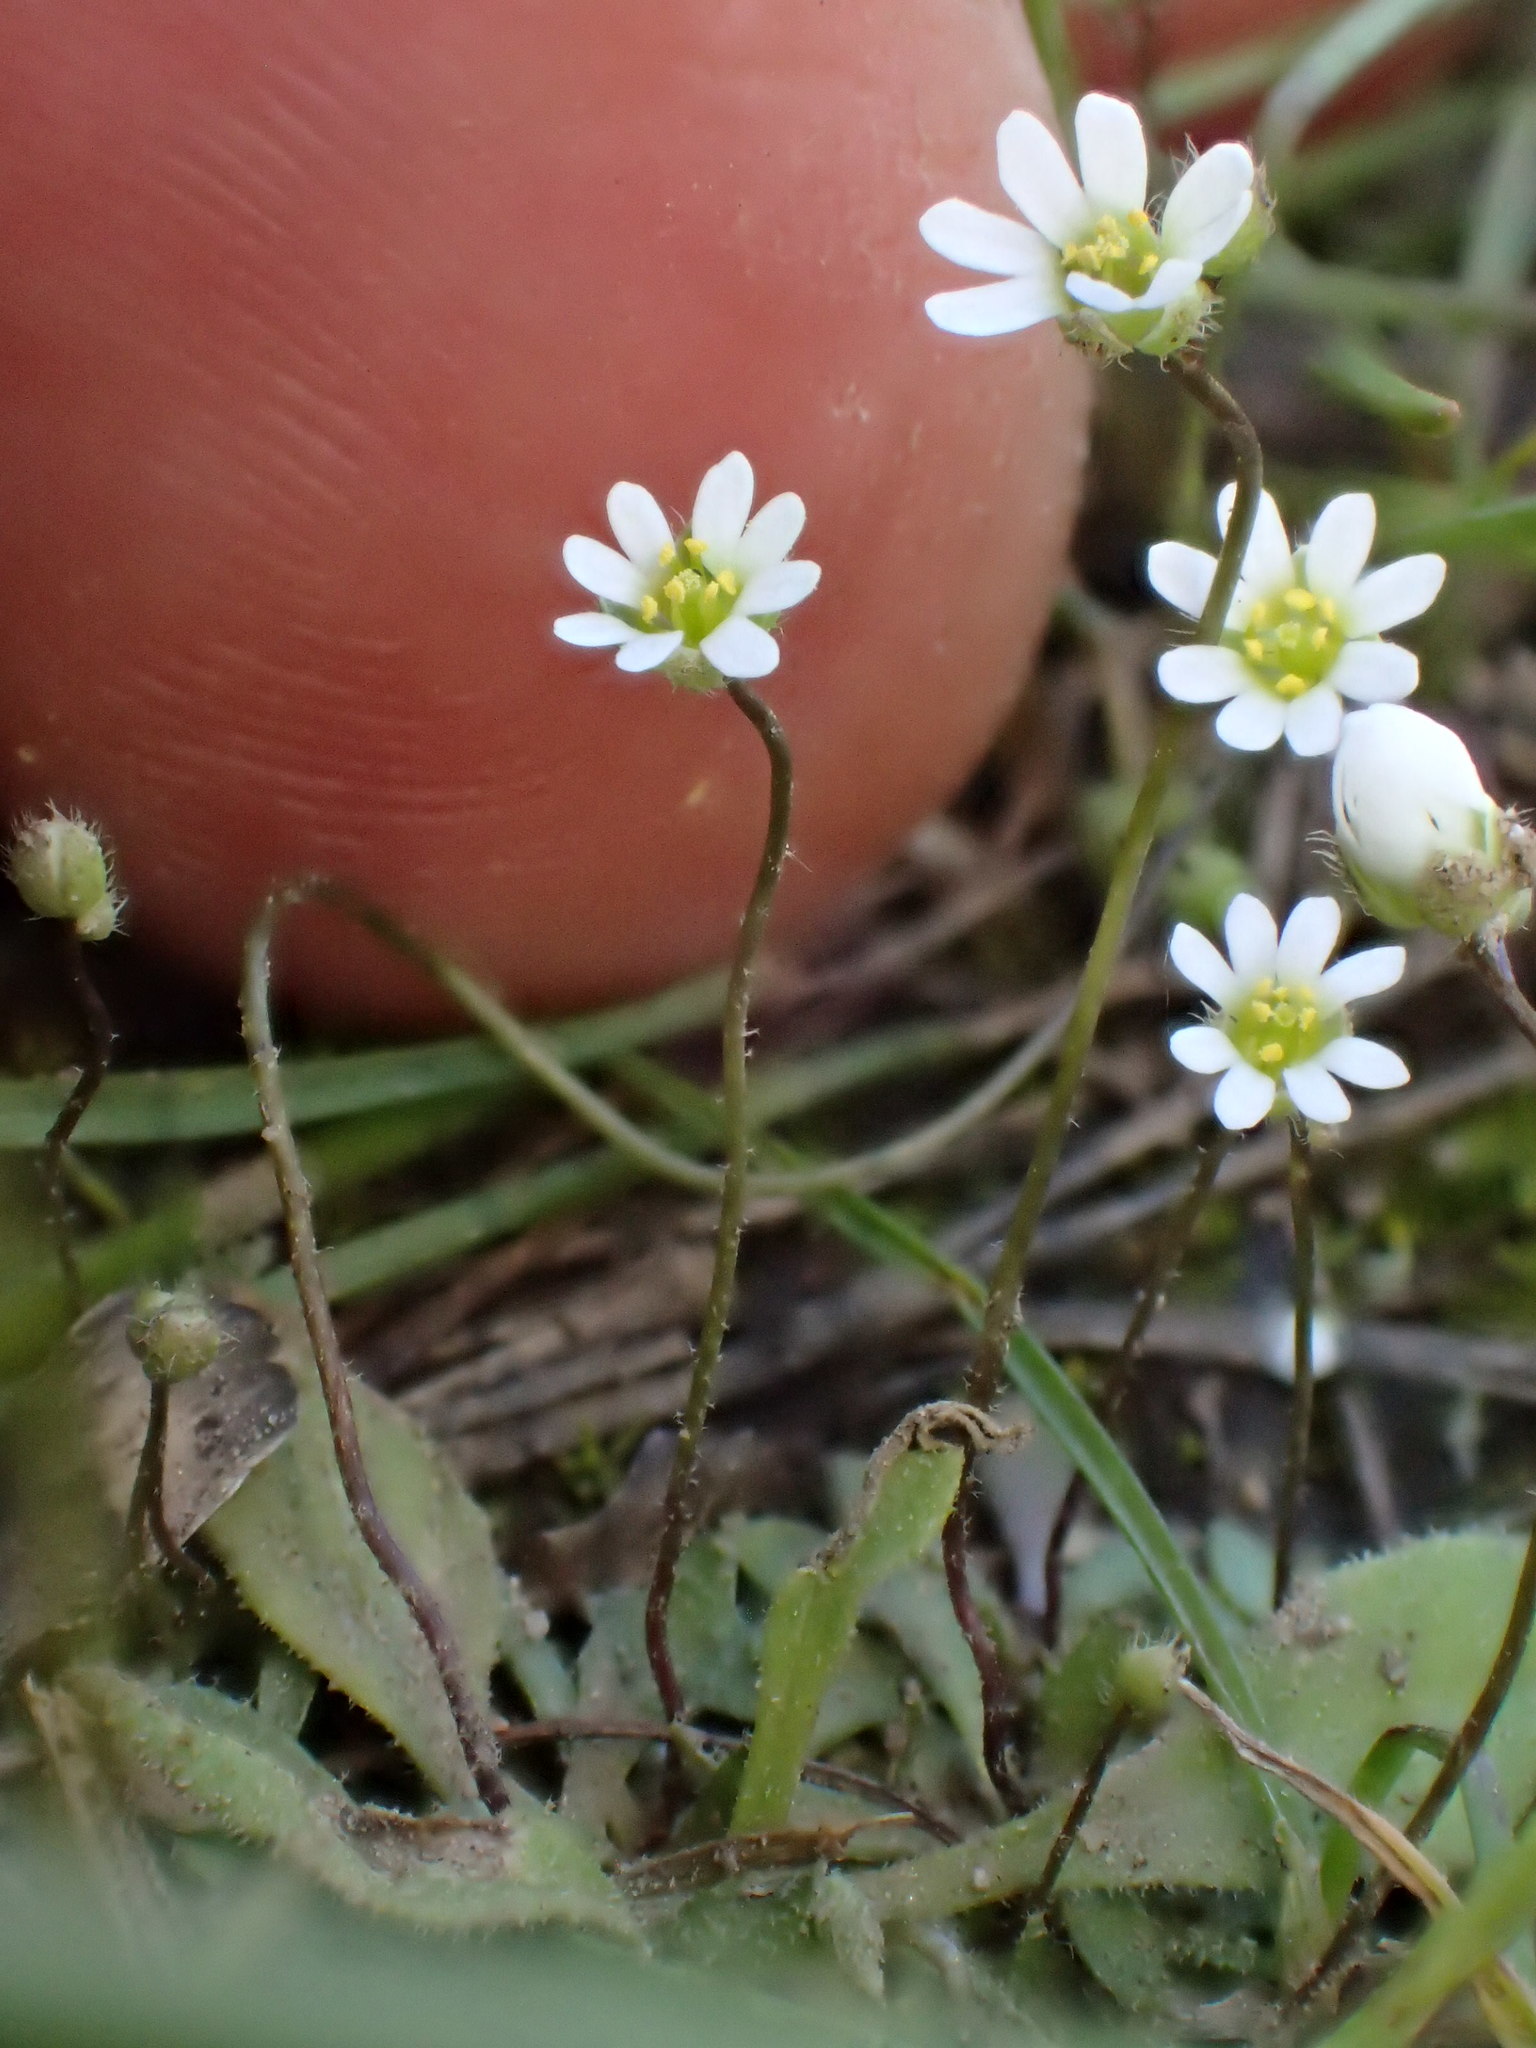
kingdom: Plantae
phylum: Tracheophyta
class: Magnoliopsida
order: Brassicales
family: Brassicaceae
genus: Draba
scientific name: Draba verna
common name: Spring draba
